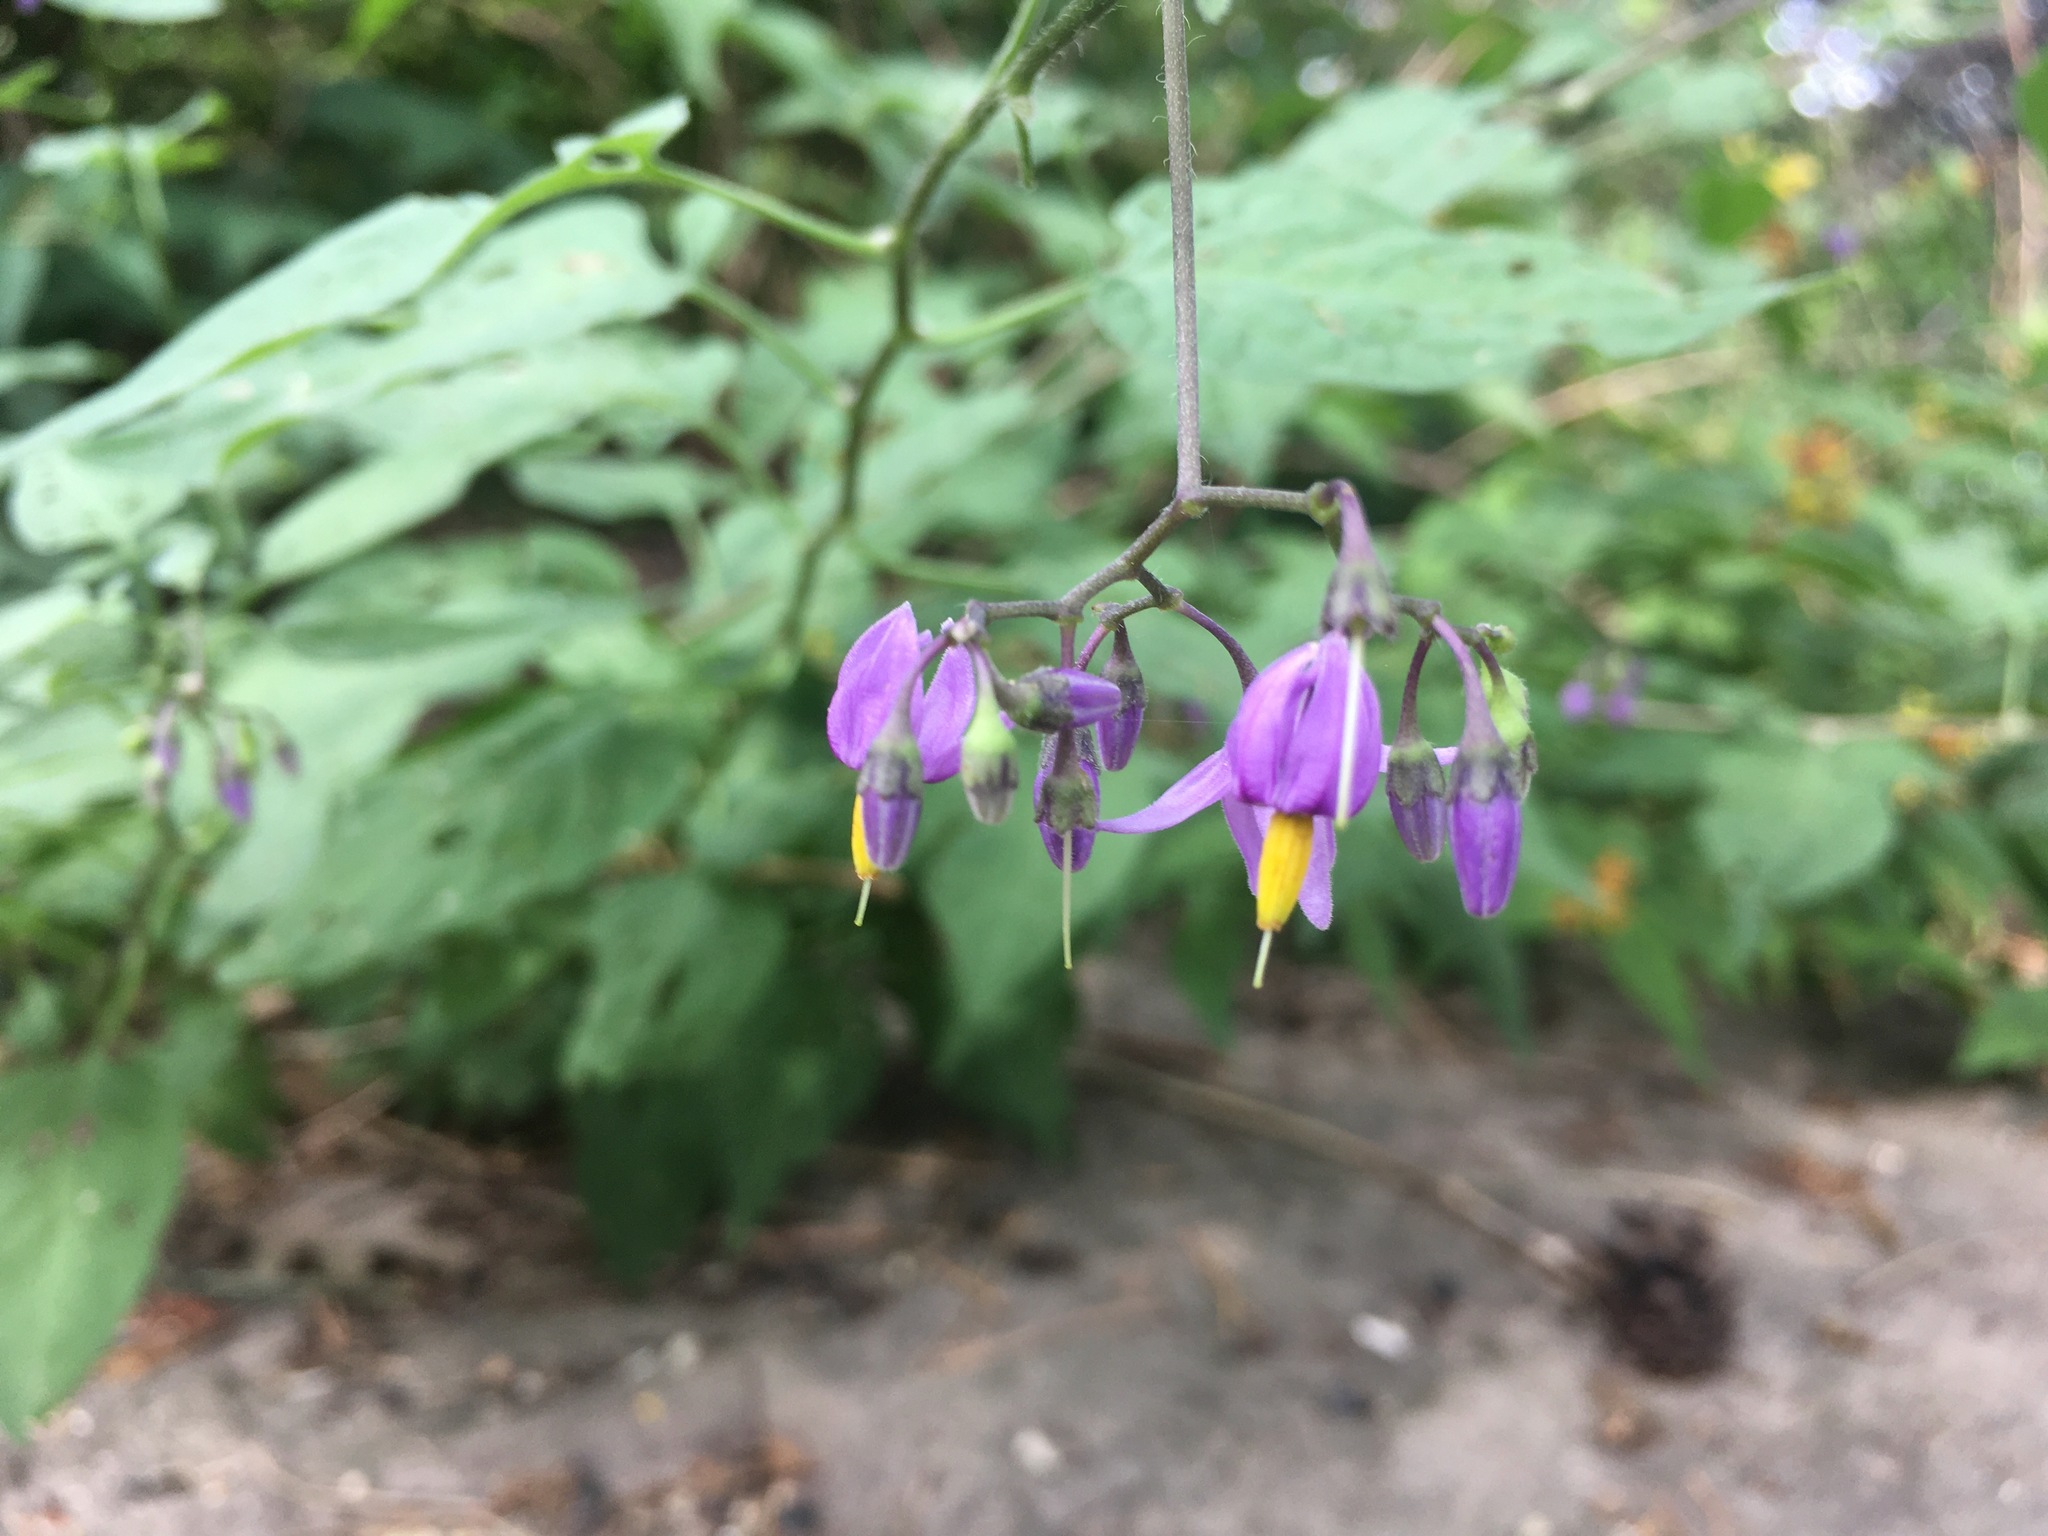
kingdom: Plantae
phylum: Tracheophyta
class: Magnoliopsida
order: Solanales
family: Solanaceae
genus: Solanum
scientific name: Solanum dulcamara
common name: Climbing nightshade
